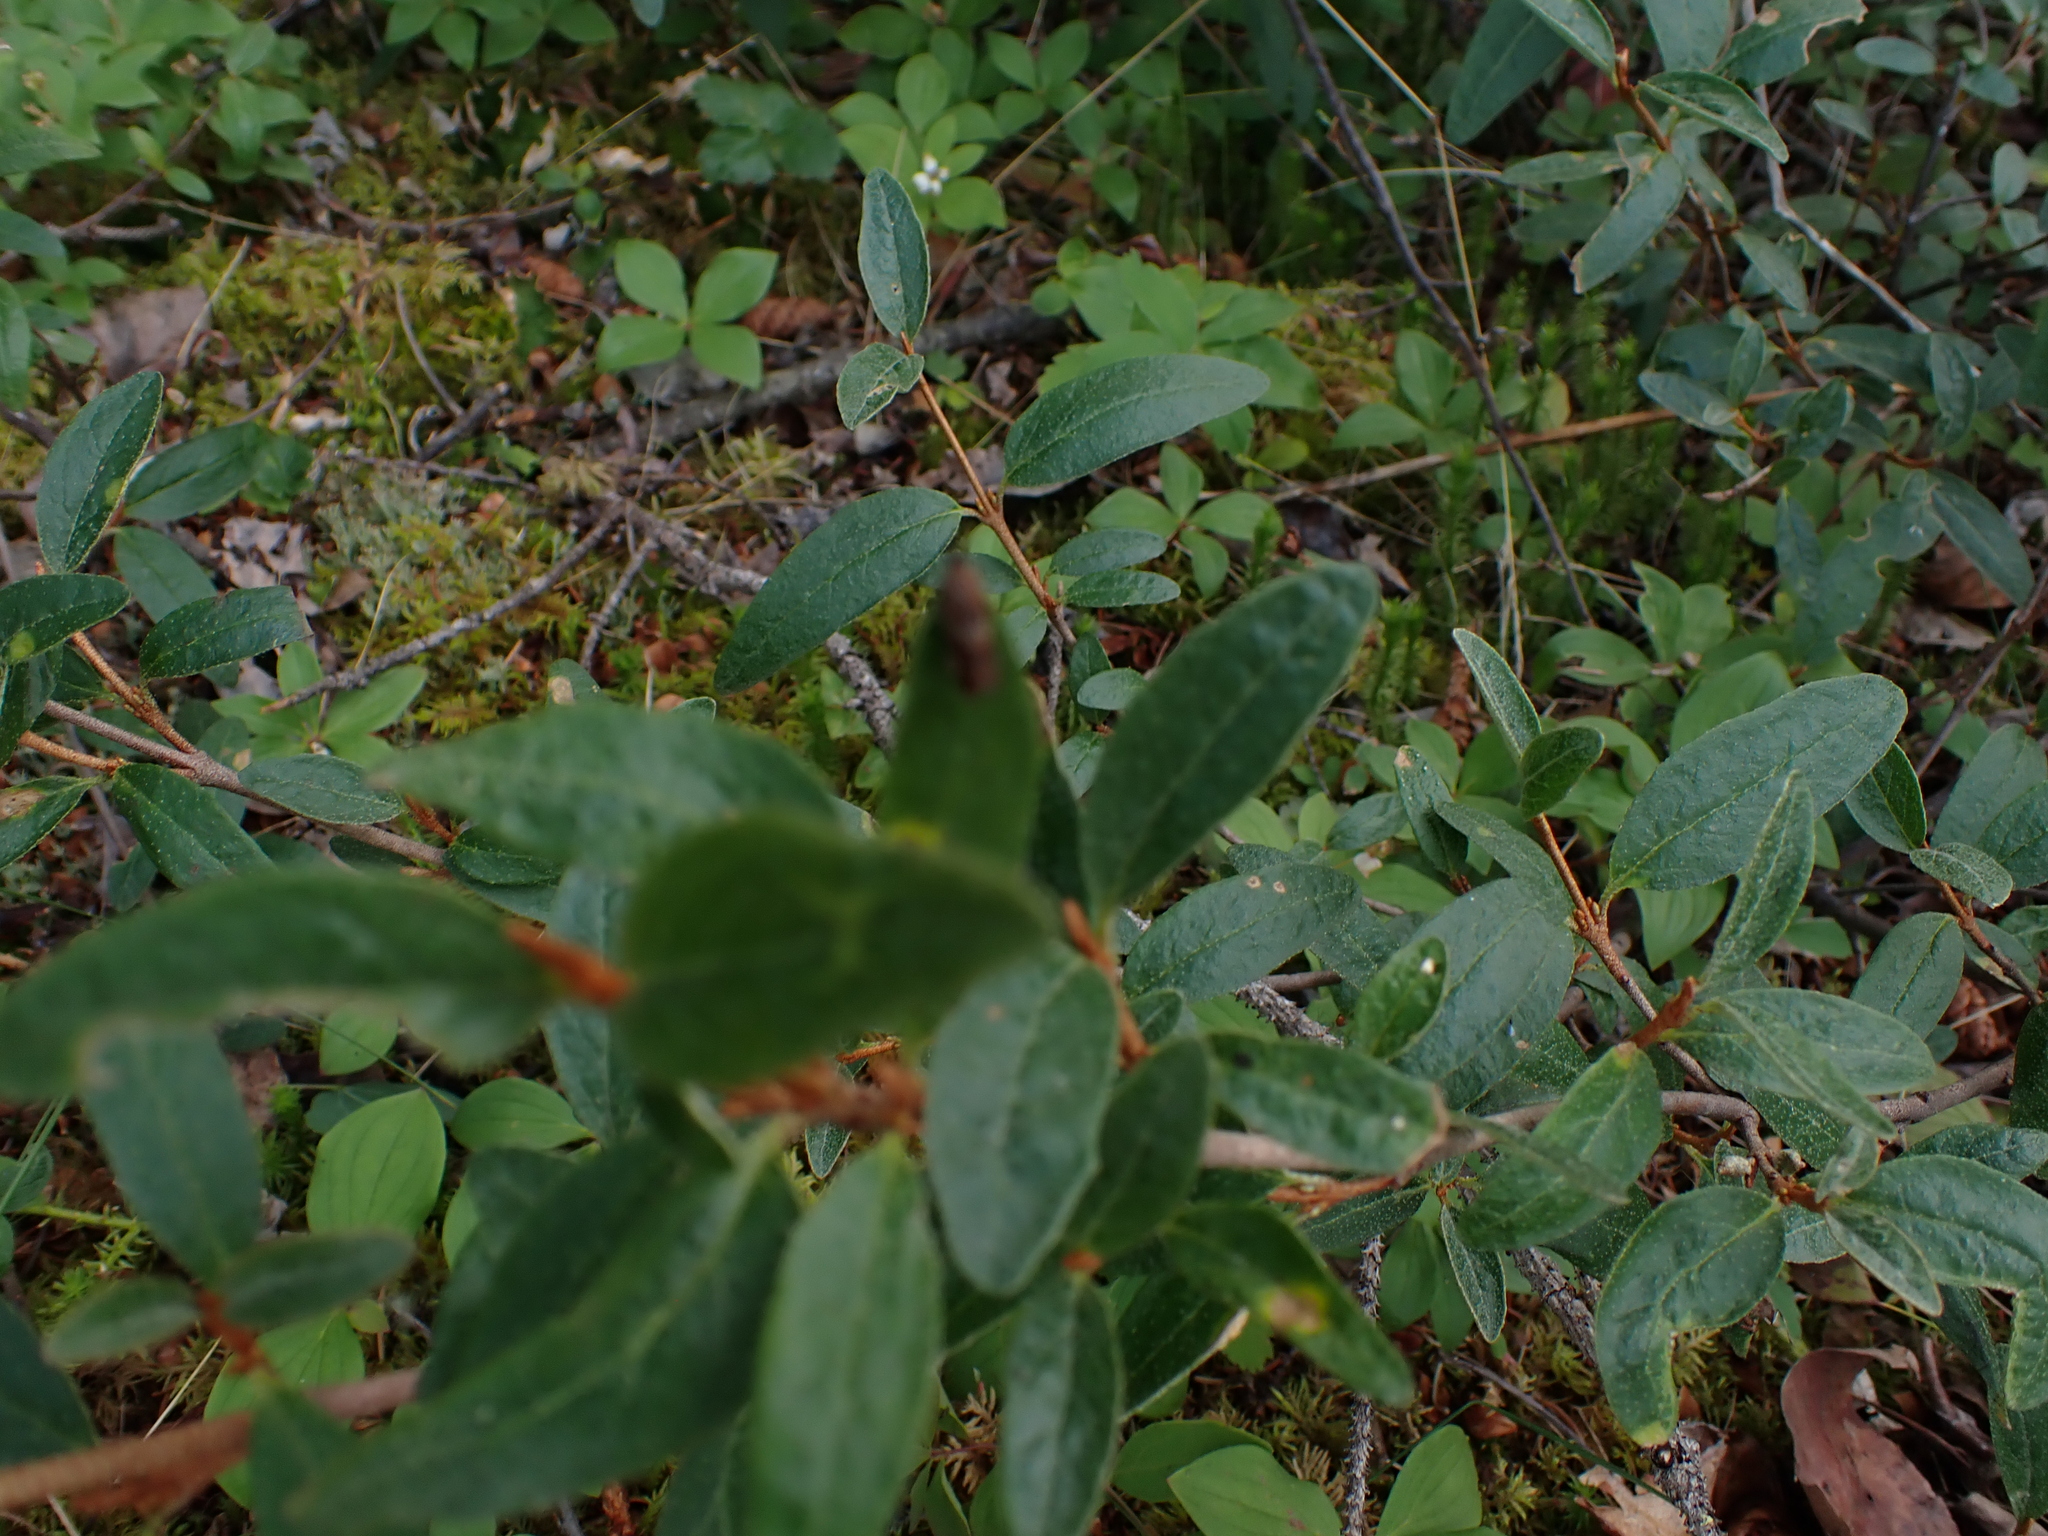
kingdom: Plantae
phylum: Tracheophyta
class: Magnoliopsida
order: Rosales
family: Elaeagnaceae
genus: Shepherdia
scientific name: Shepherdia canadensis
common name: Soapberry
